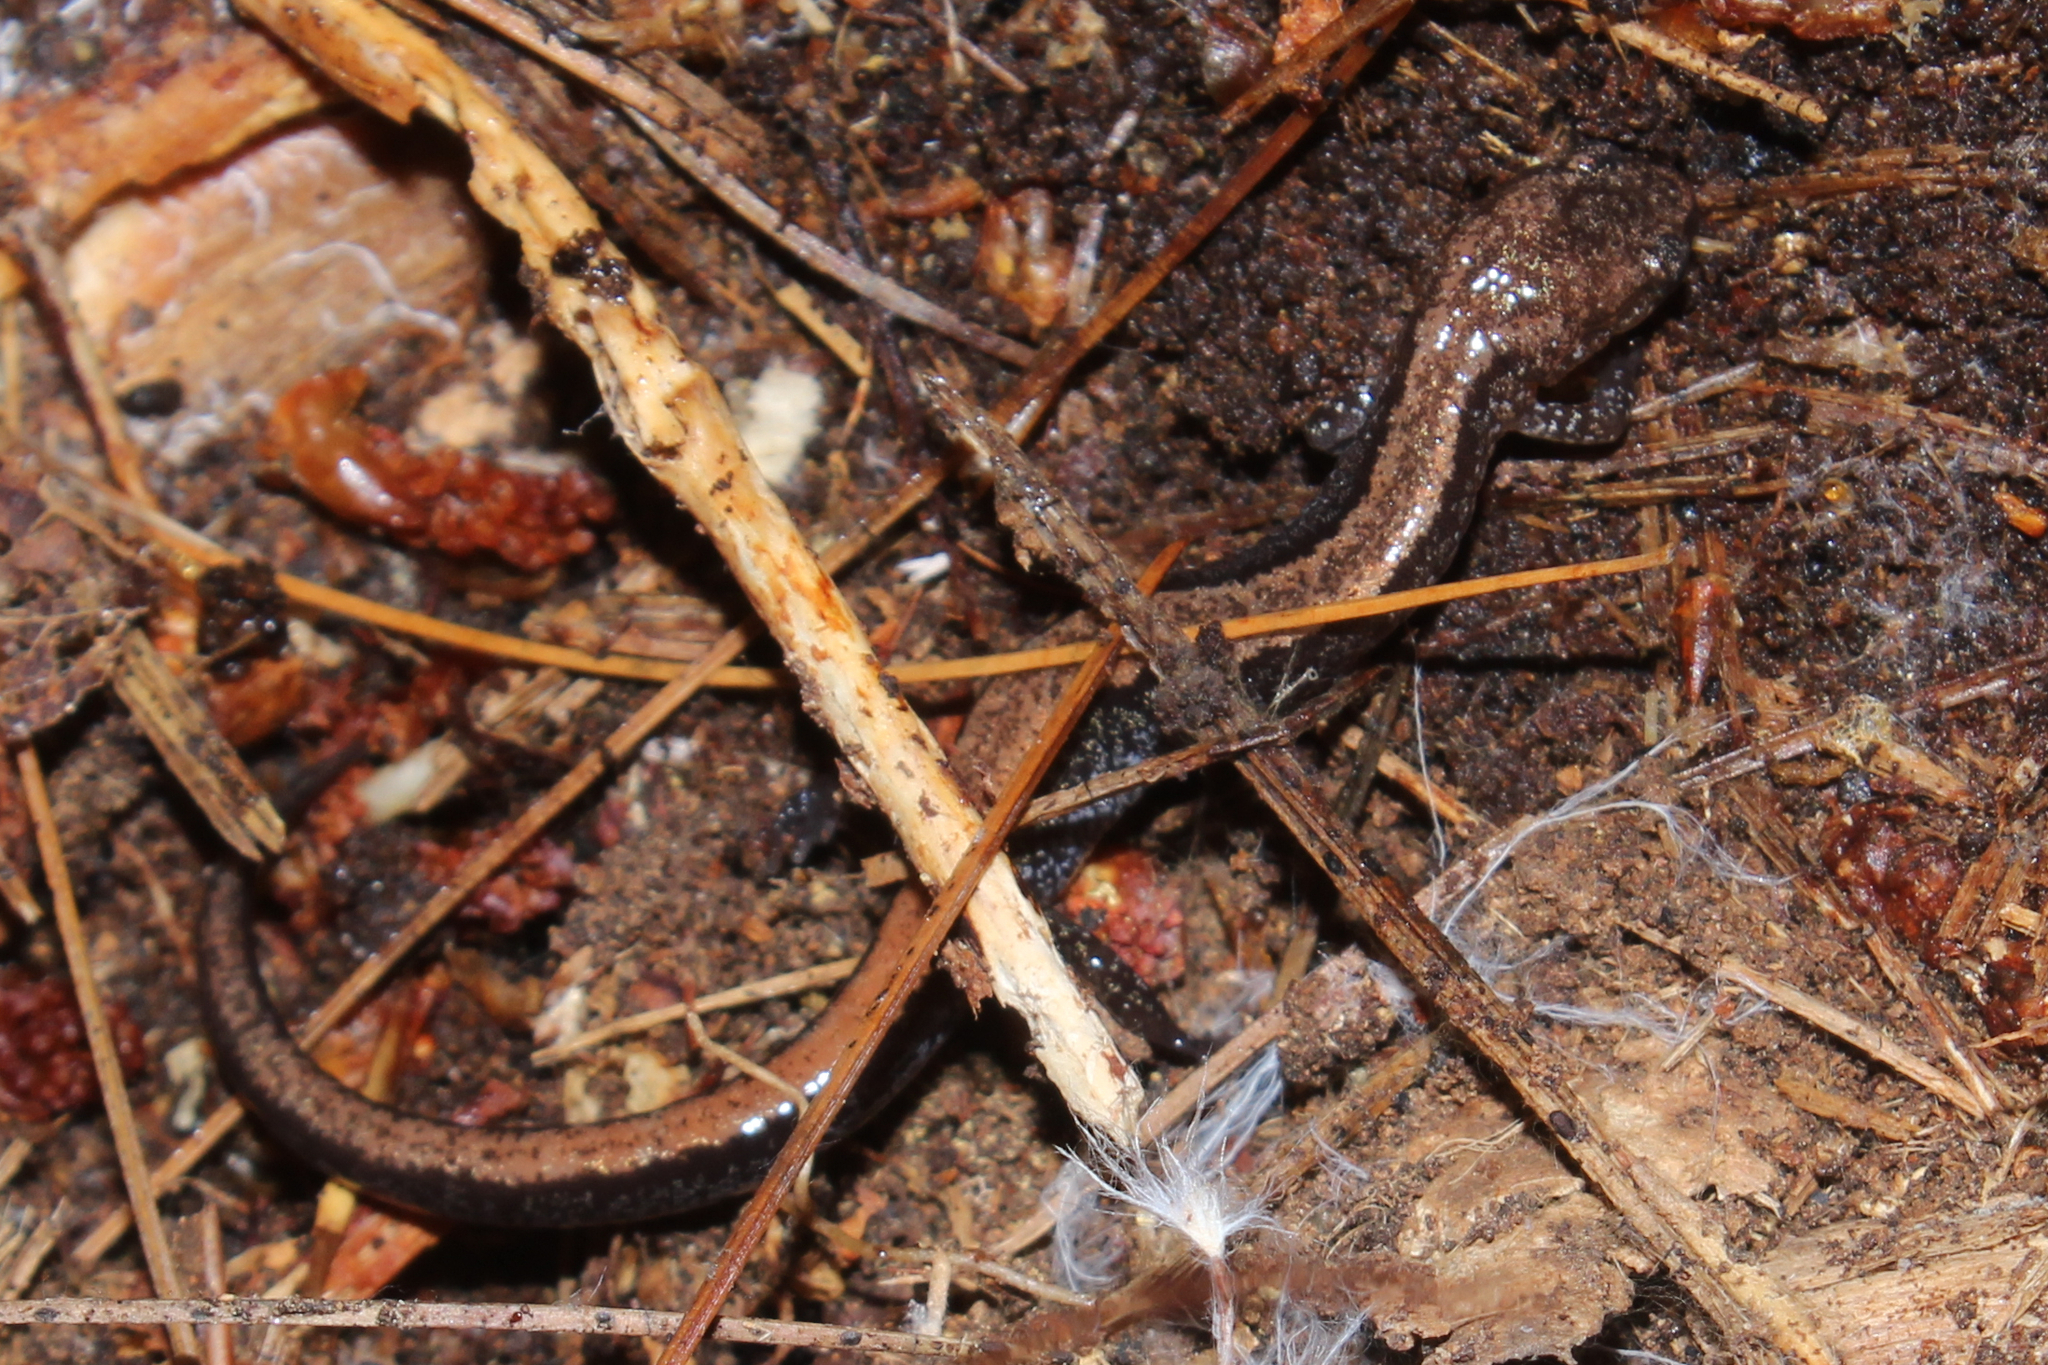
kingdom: Animalia
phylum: Chordata
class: Amphibia
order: Caudata
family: Plethodontidae
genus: Plethodon
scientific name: Plethodon cinereus
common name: Redback salamander
